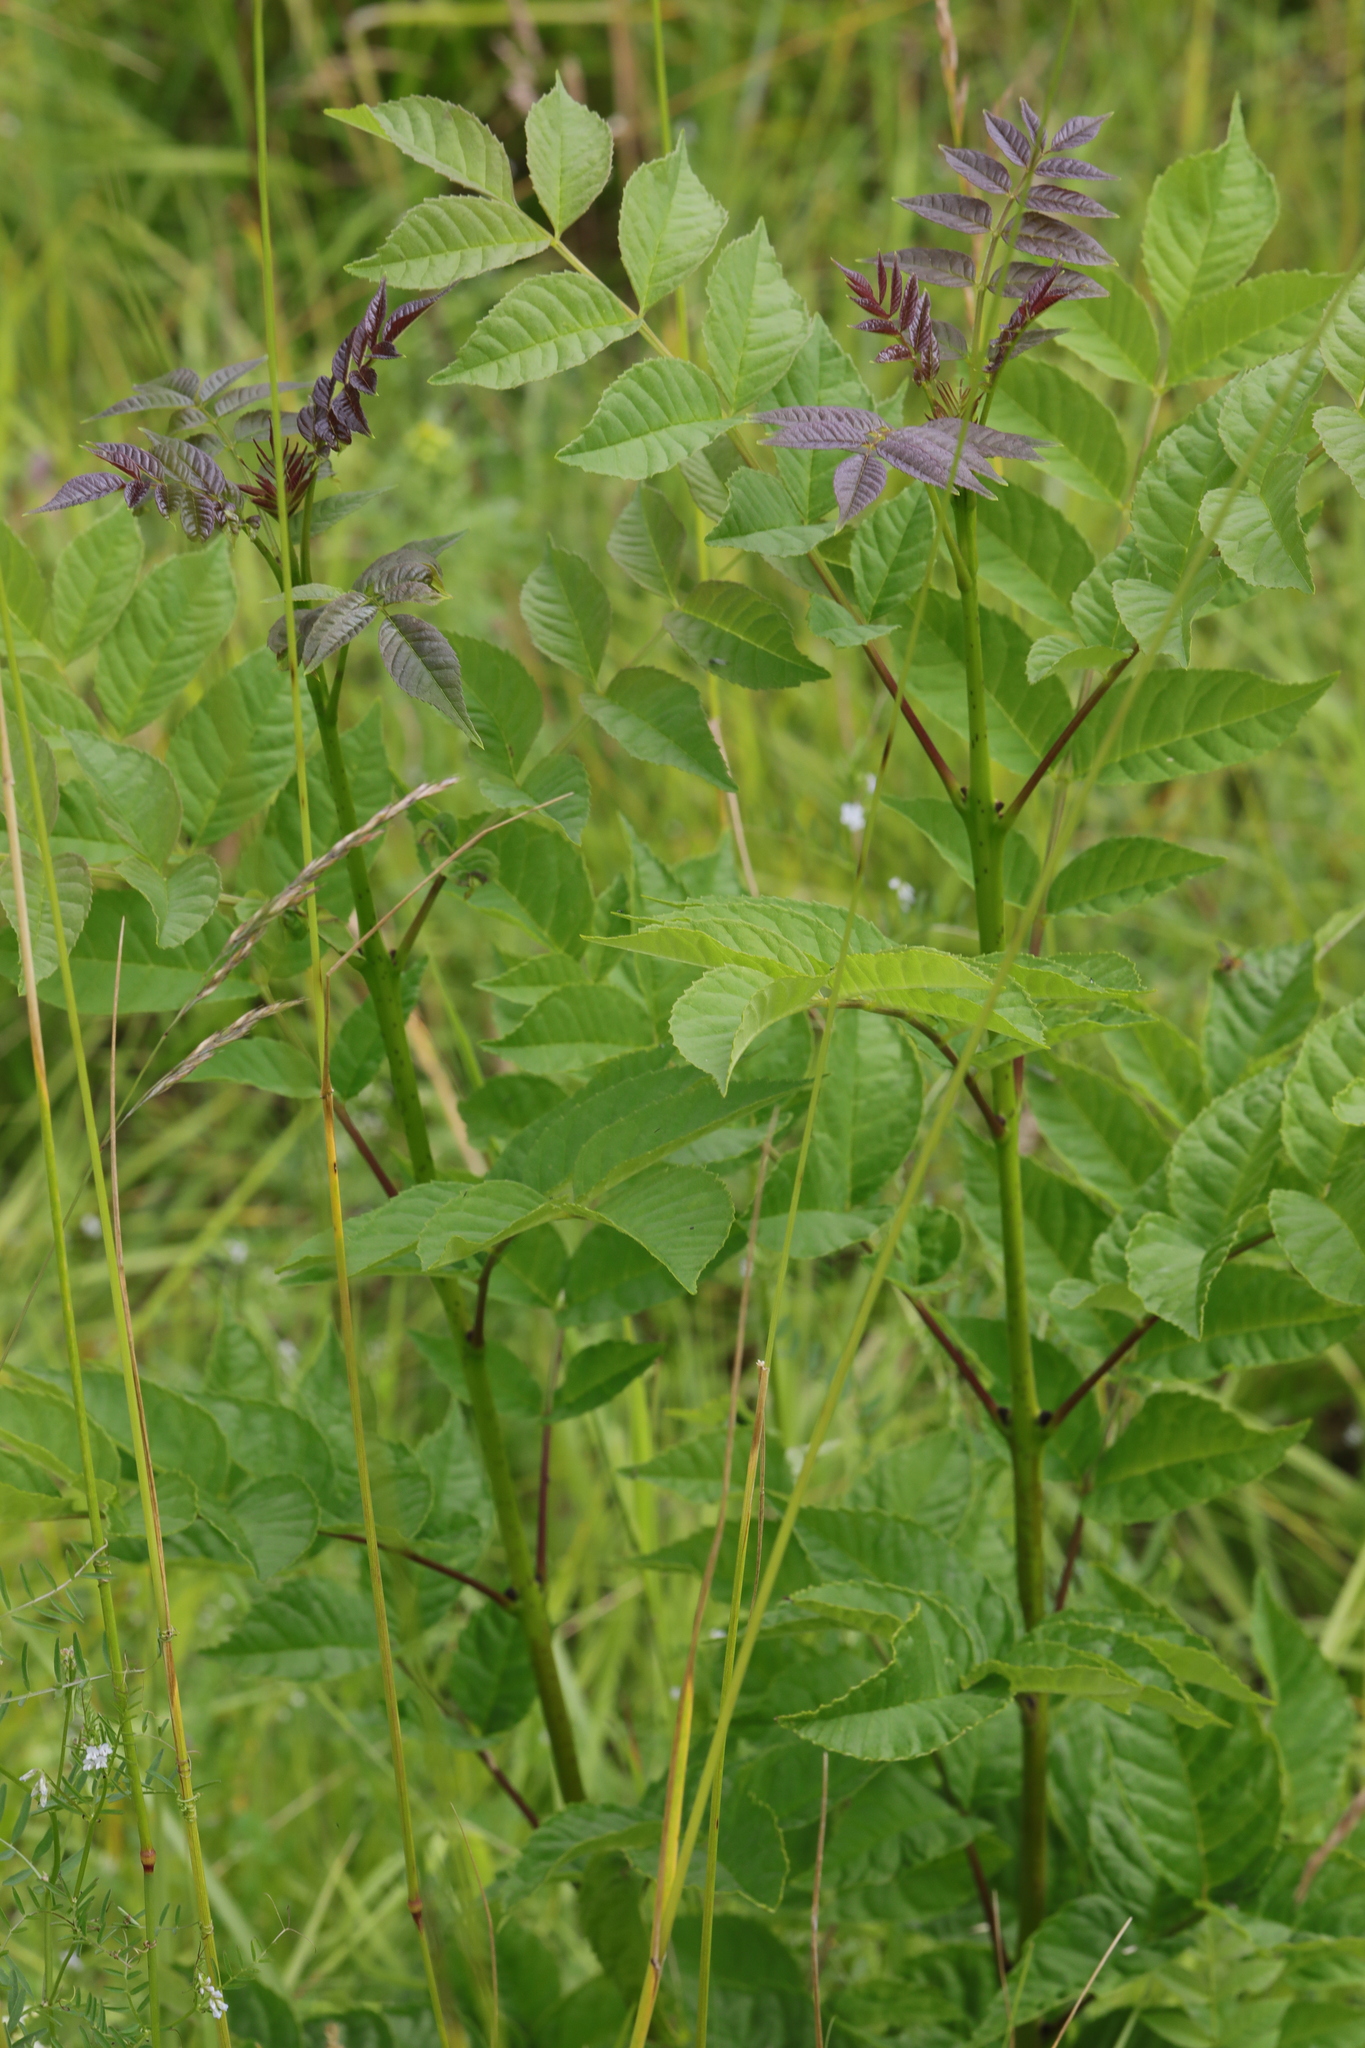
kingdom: Plantae
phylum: Tracheophyta
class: Magnoliopsida
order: Lamiales
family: Oleaceae
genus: Fraxinus
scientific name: Fraxinus excelsior
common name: European ash
